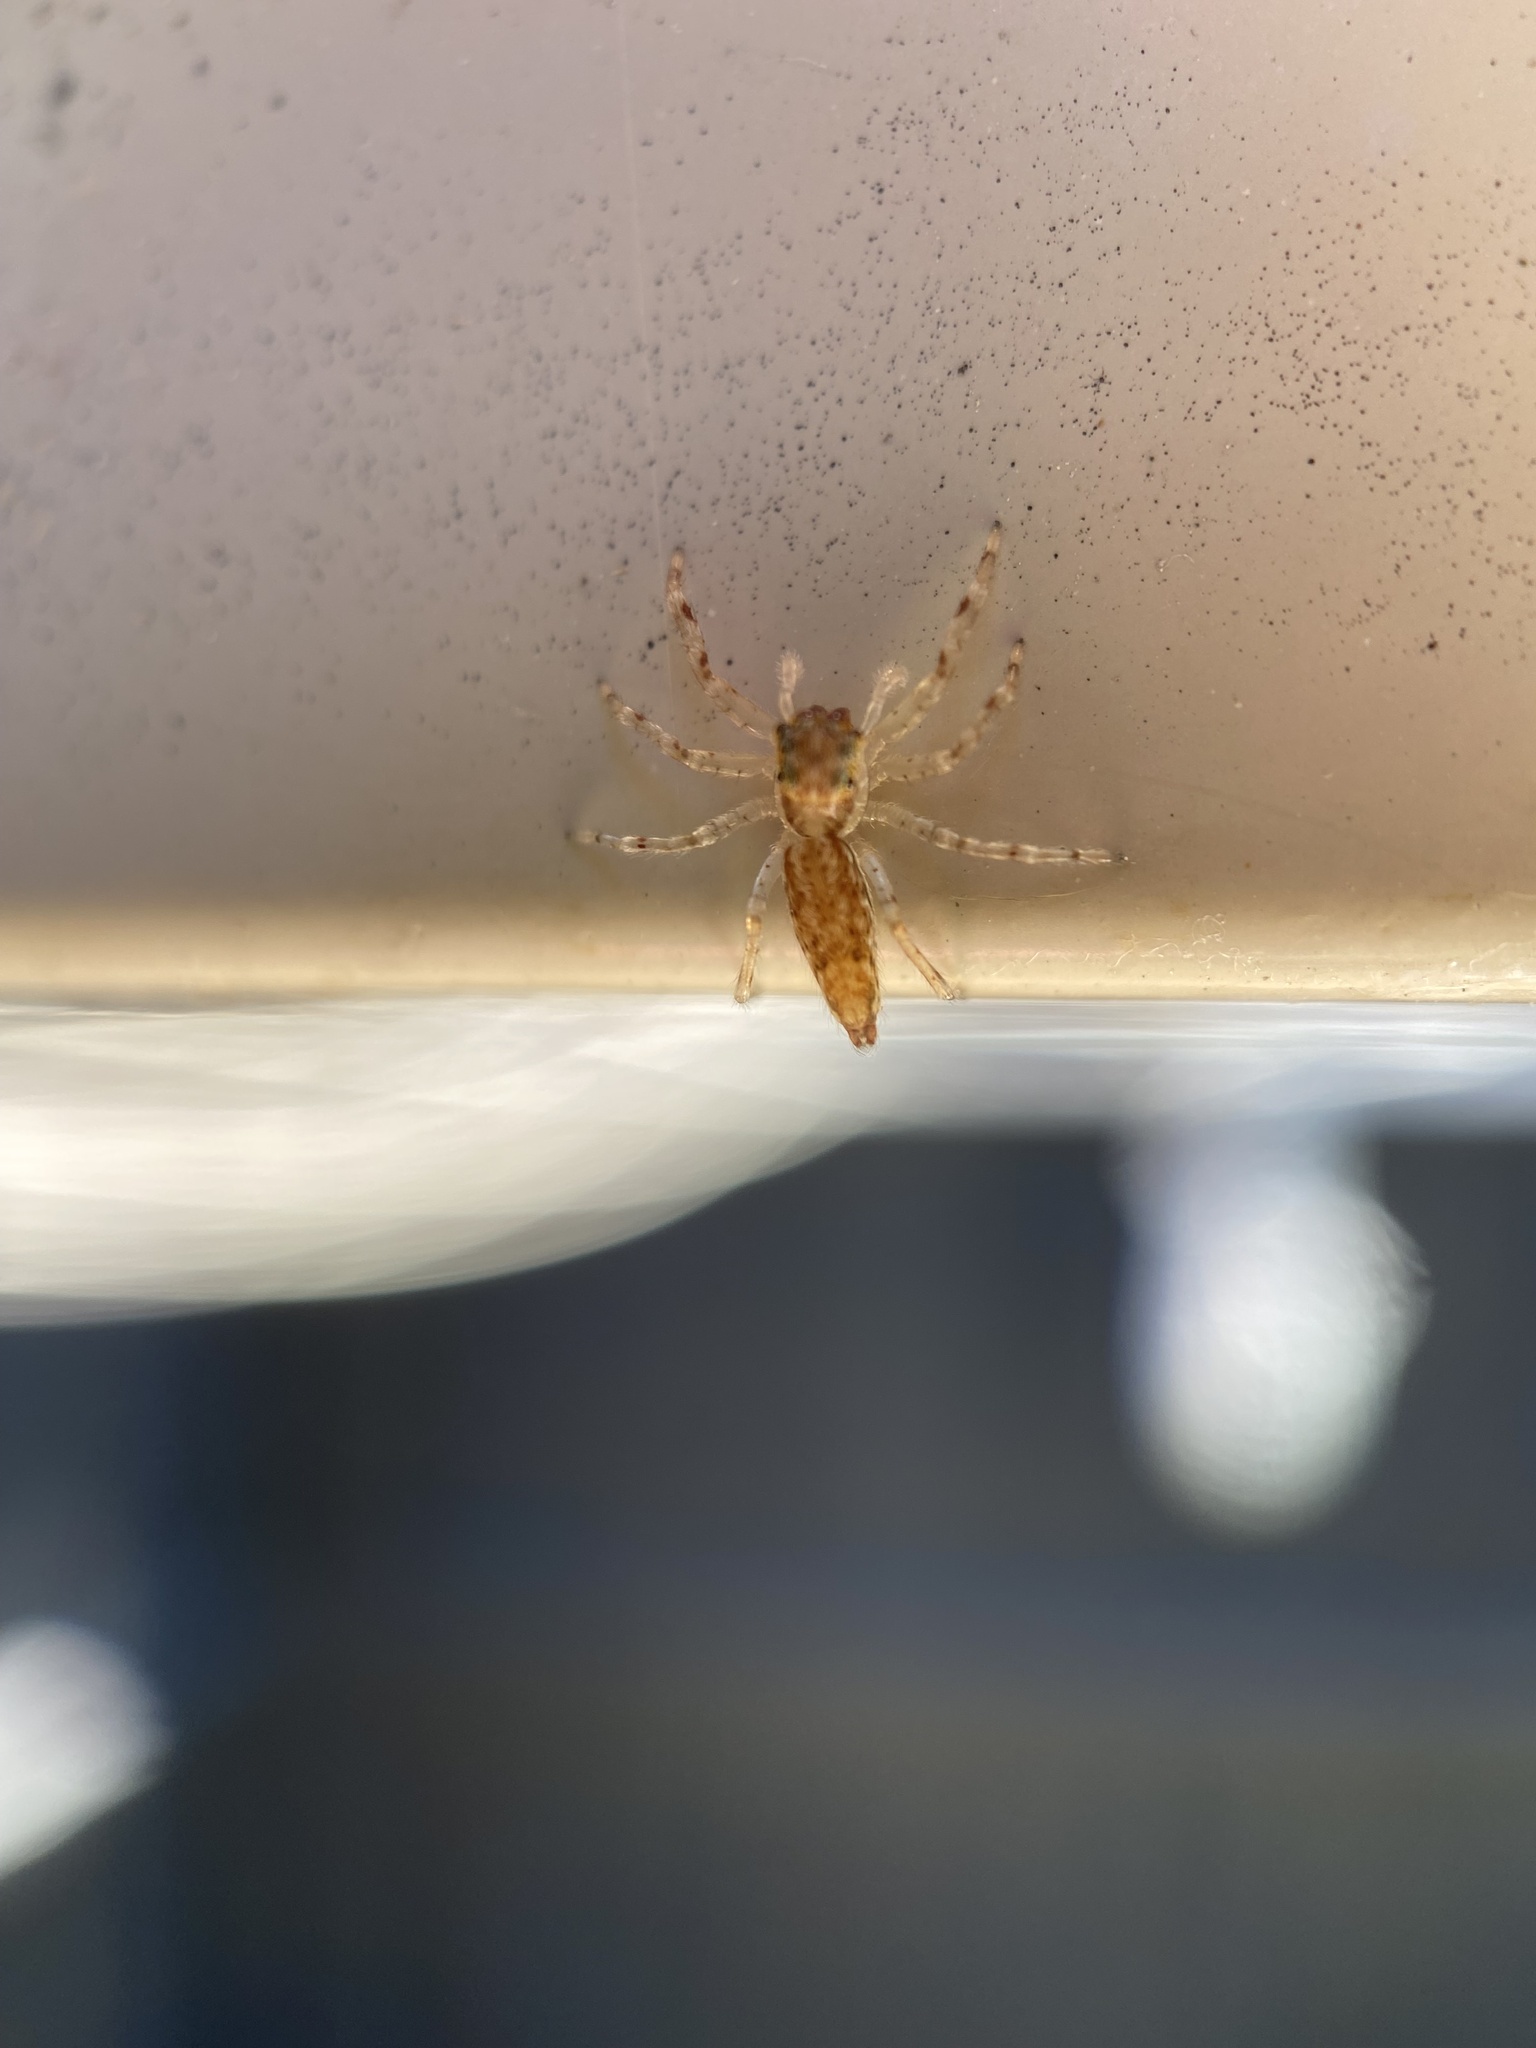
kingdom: Animalia
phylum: Arthropoda
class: Arachnida
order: Araneae
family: Salticidae
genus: Helpis
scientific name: Helpis minitabunda
